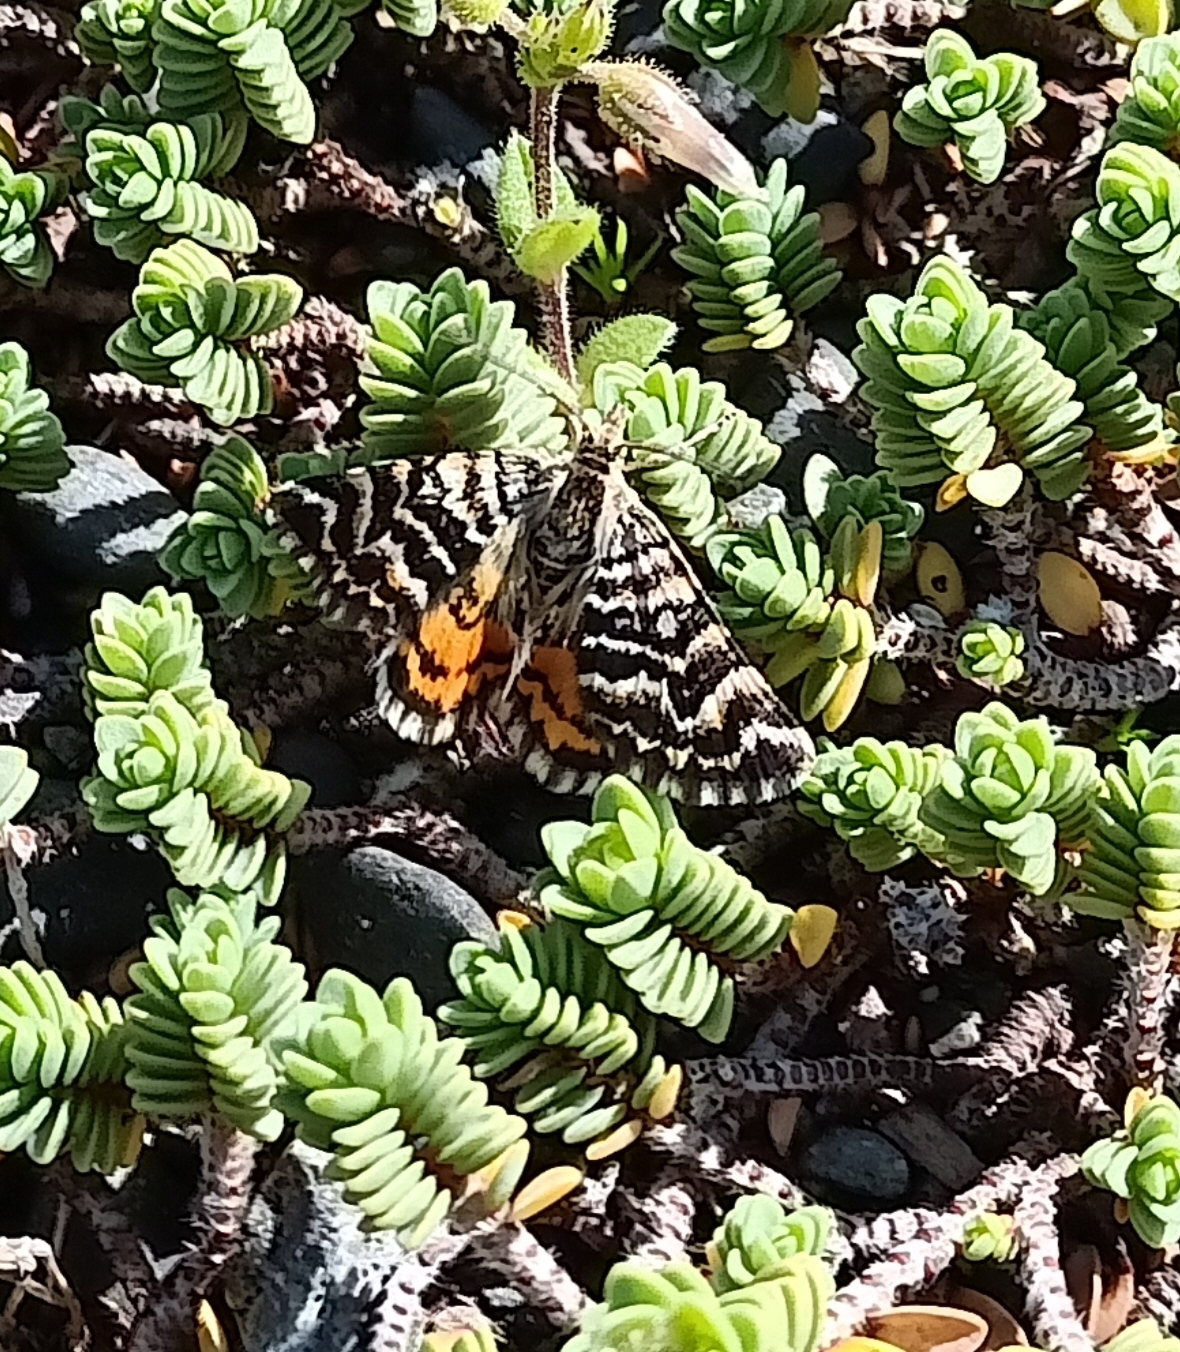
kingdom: Animalia
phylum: Arthropoda
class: Insecta
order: Lepidoptera
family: Geometridae
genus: Notoreas
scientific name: Notoreas perornata
